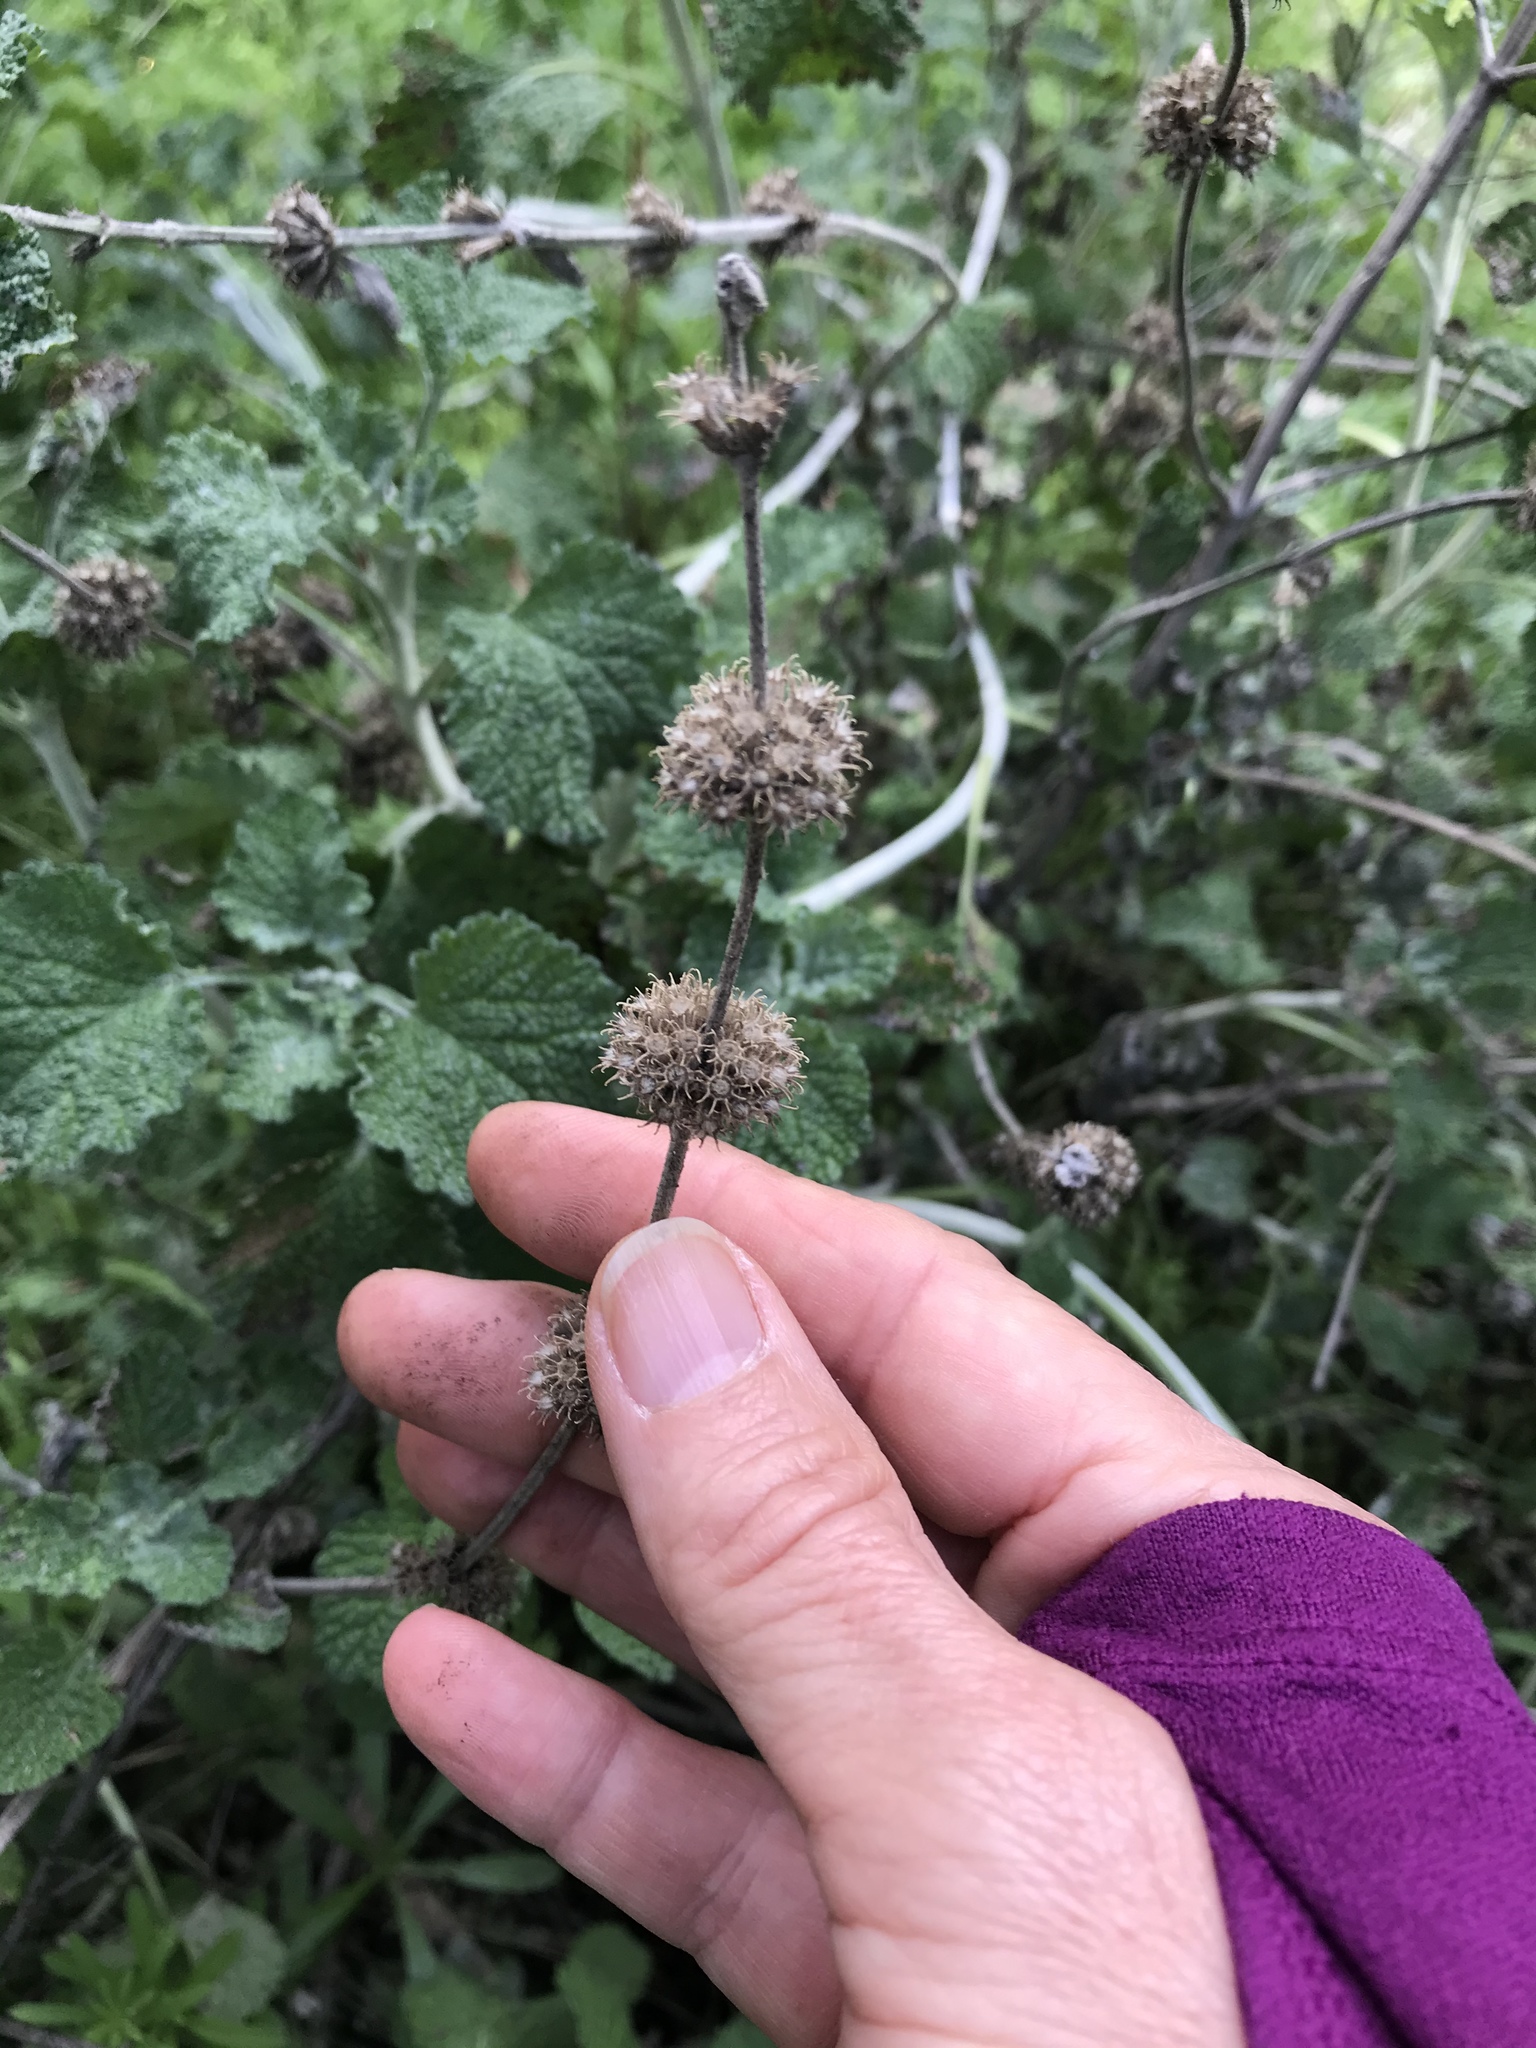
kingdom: Plantae
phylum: Tracheophyta
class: Magnoliopsida
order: Lamiales
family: Lamiaceae
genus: Marrubium
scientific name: Marrubium vulgare
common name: Horehound
